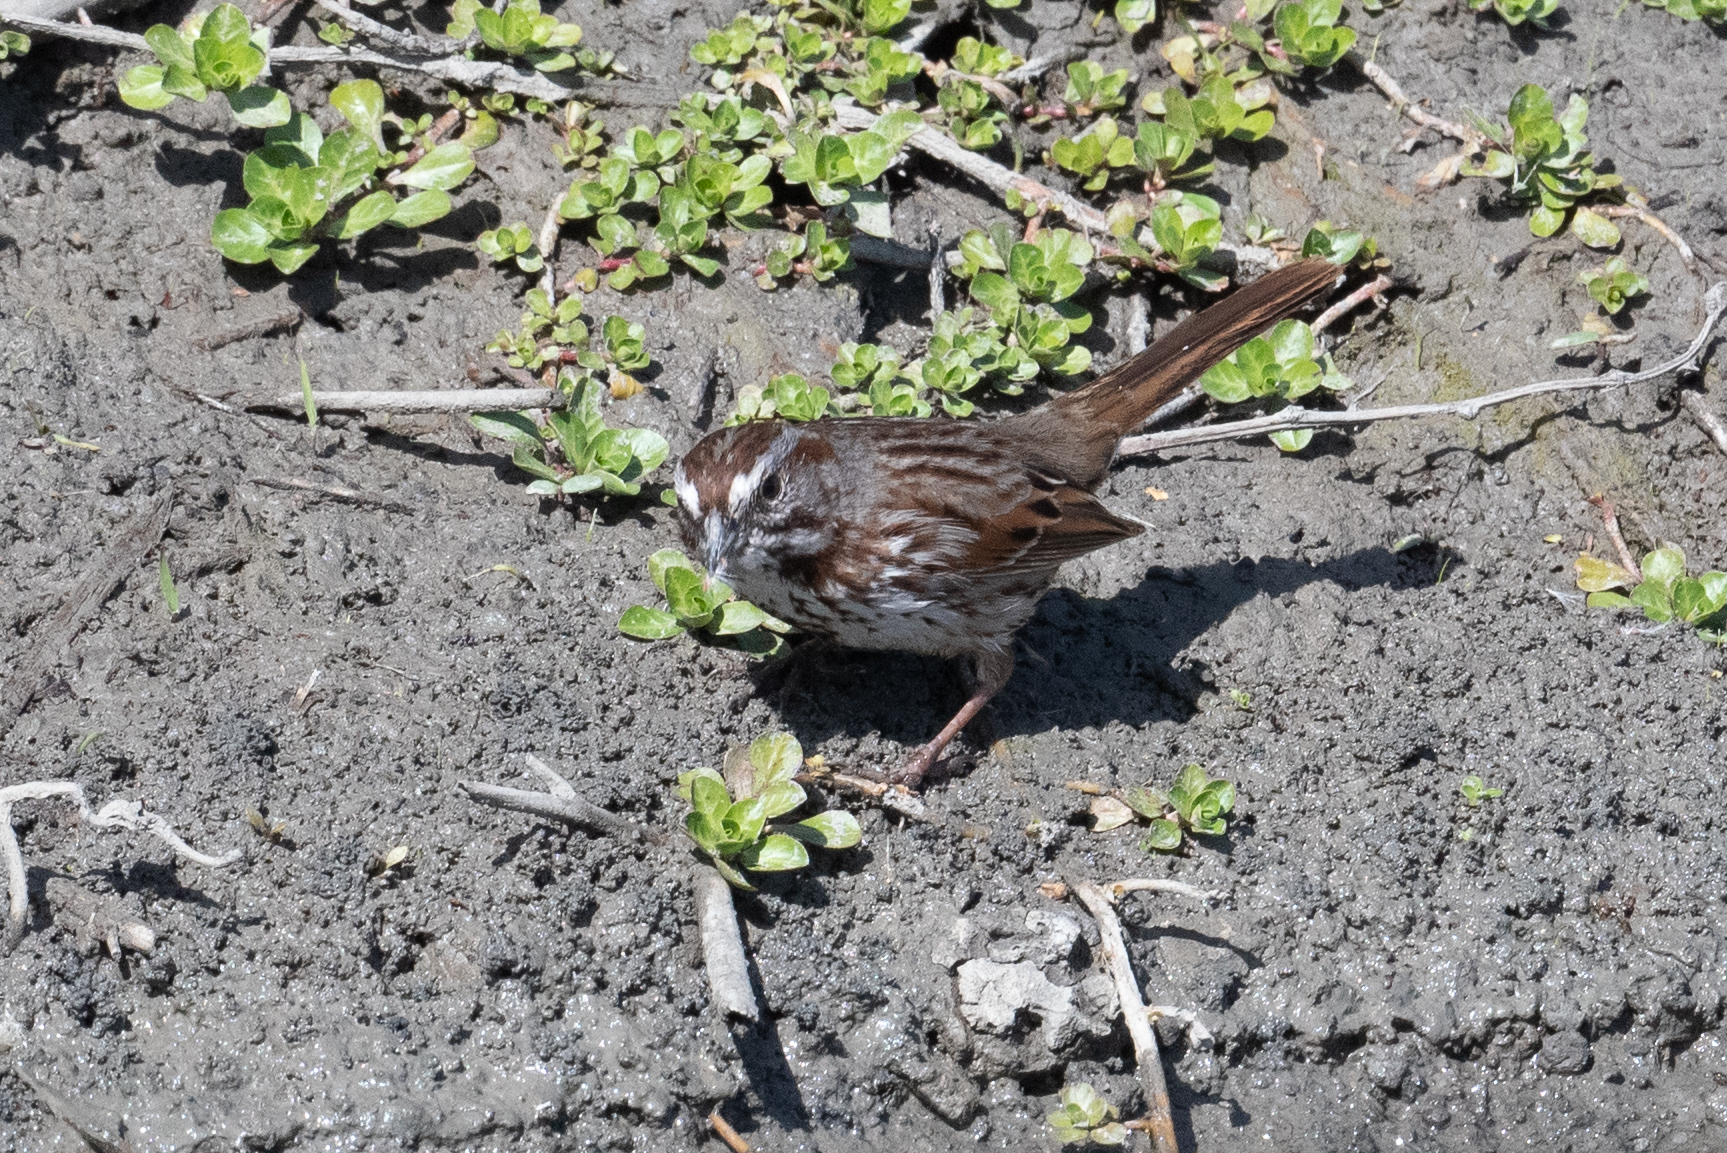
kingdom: Animalia
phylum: Chordata
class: Aves
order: Passeriformes
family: Passerellidae
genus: Melospiza
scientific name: Melospiza melodia
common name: Song sparrow
